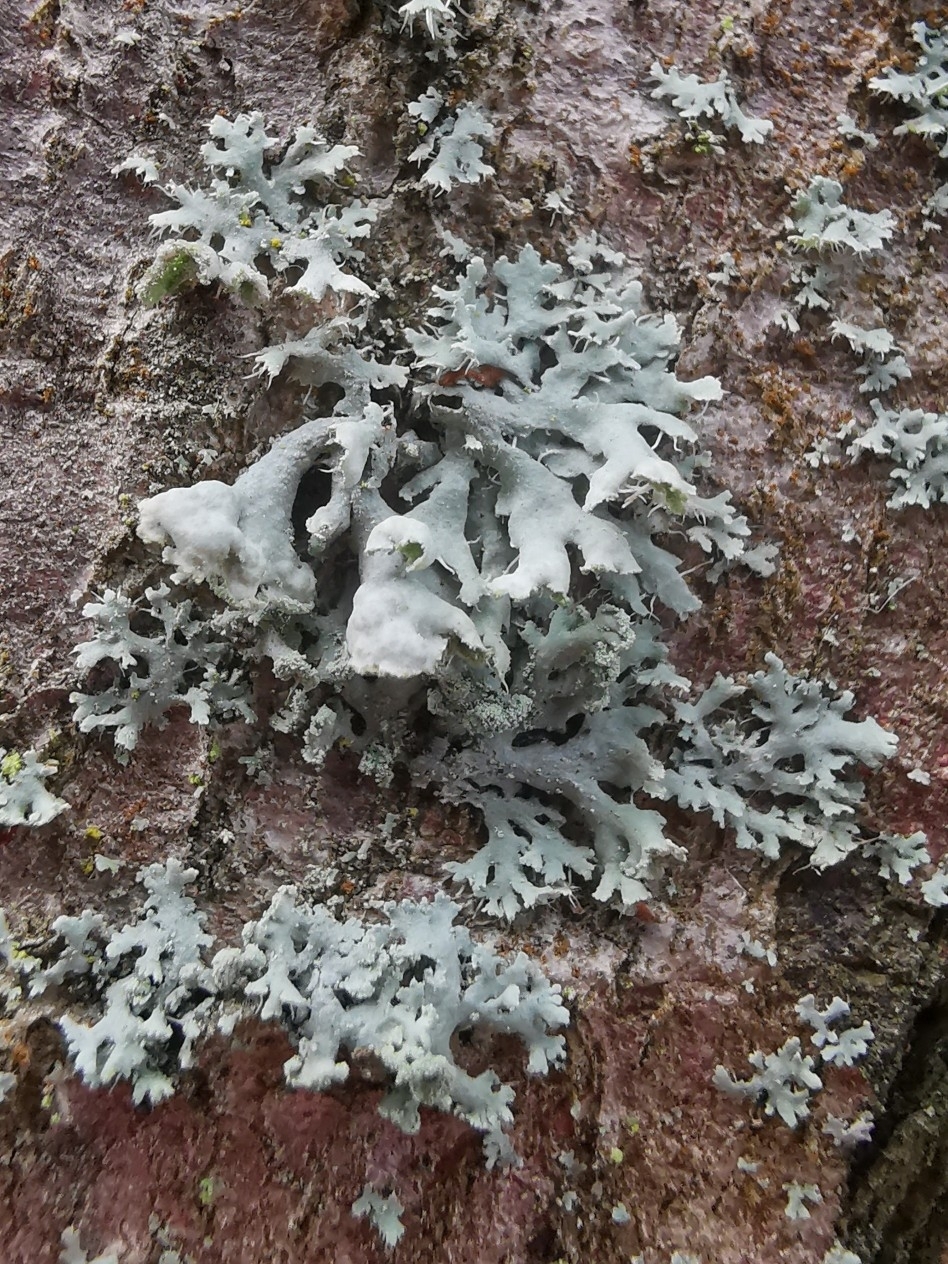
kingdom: Fungi
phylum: Ascomycota
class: Lecanoromycetes
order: Caliciales
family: Physciaceae
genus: Physcia
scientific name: Physcia adscendens
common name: Hooded rosette lichen
